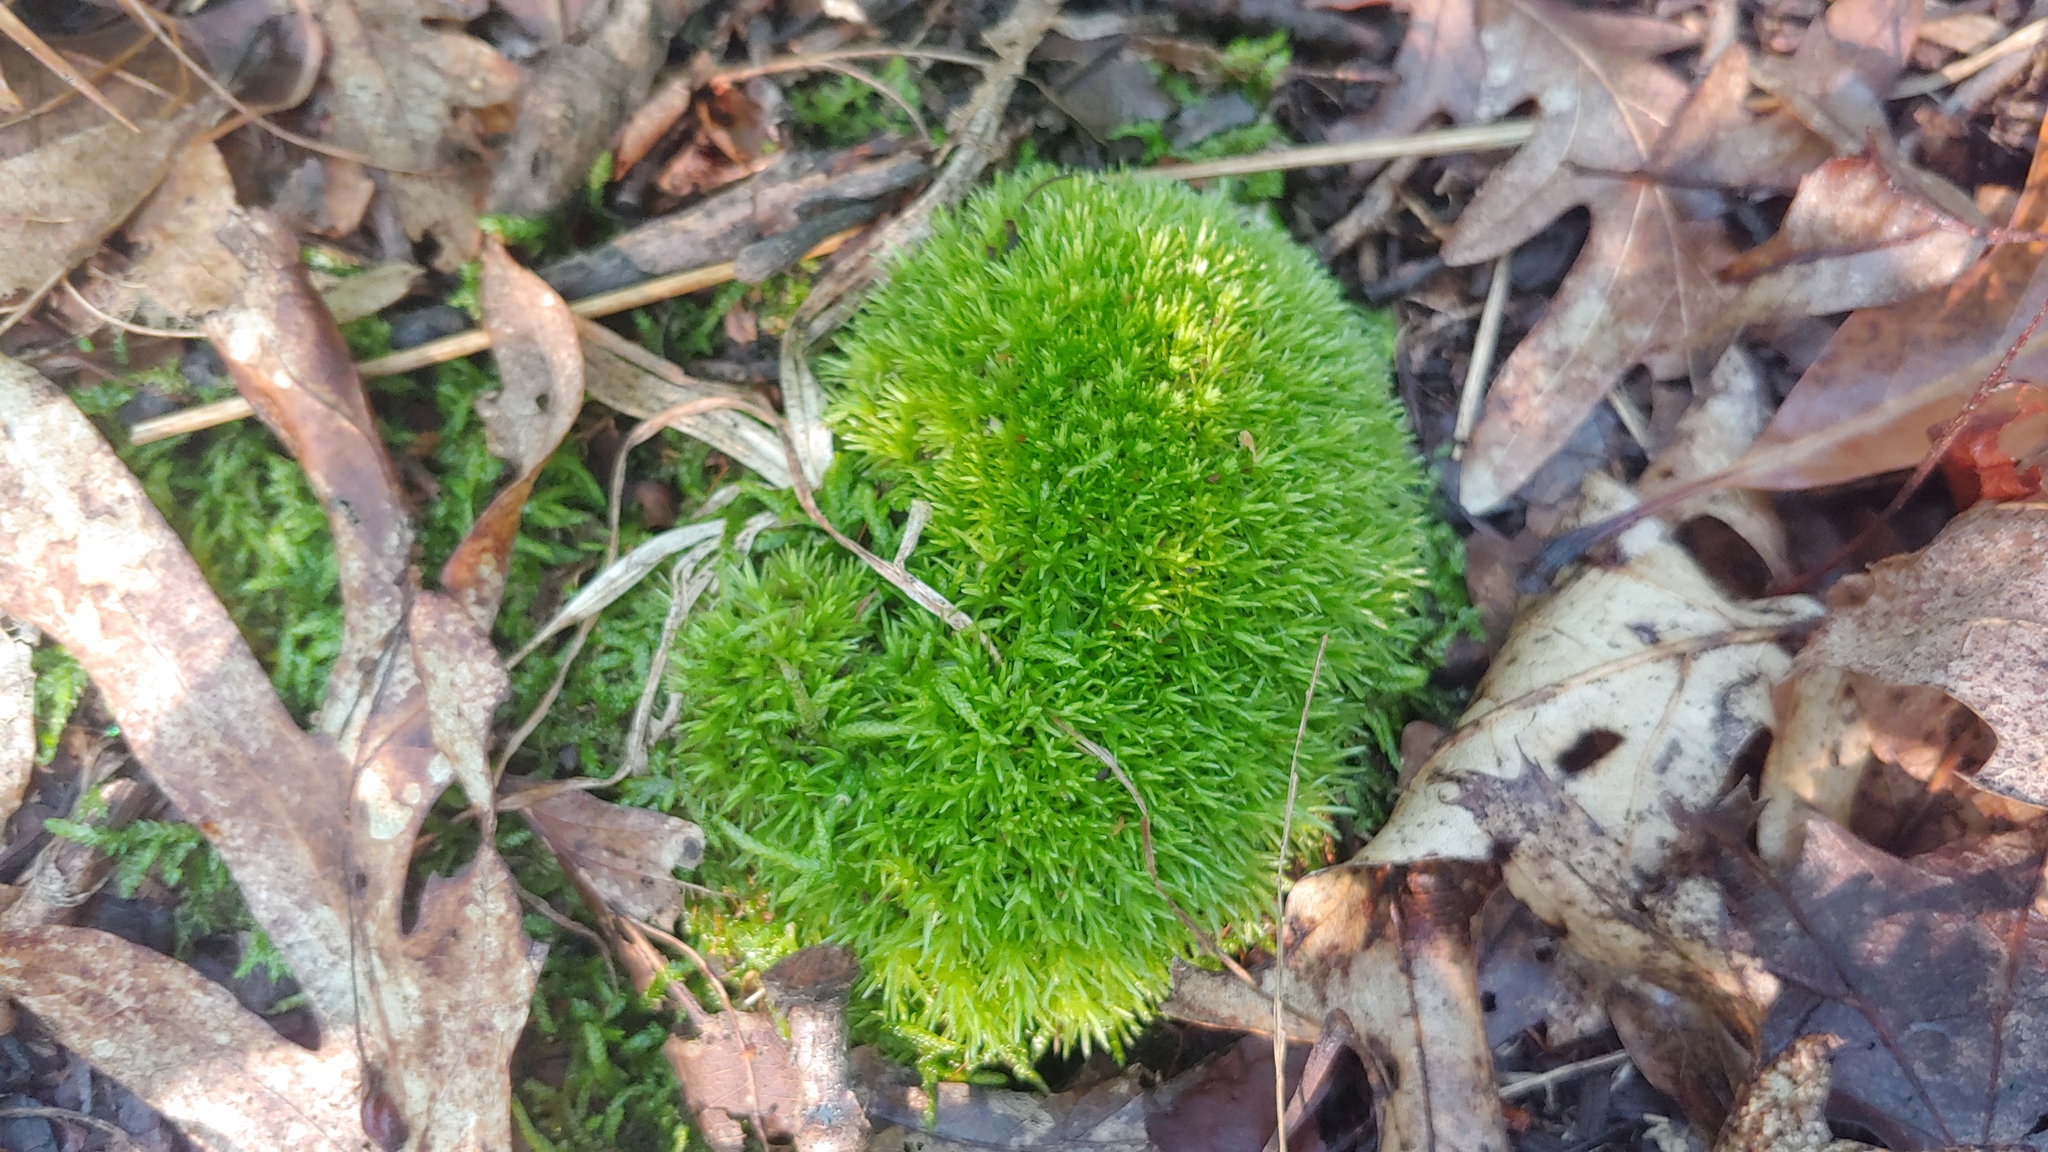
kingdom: Plantae
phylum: Bryophyta
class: Bryopsida
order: Dicranales
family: Leucobryaceae
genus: Leucobryum
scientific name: Leucobryum glaucum
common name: Large white-moss
